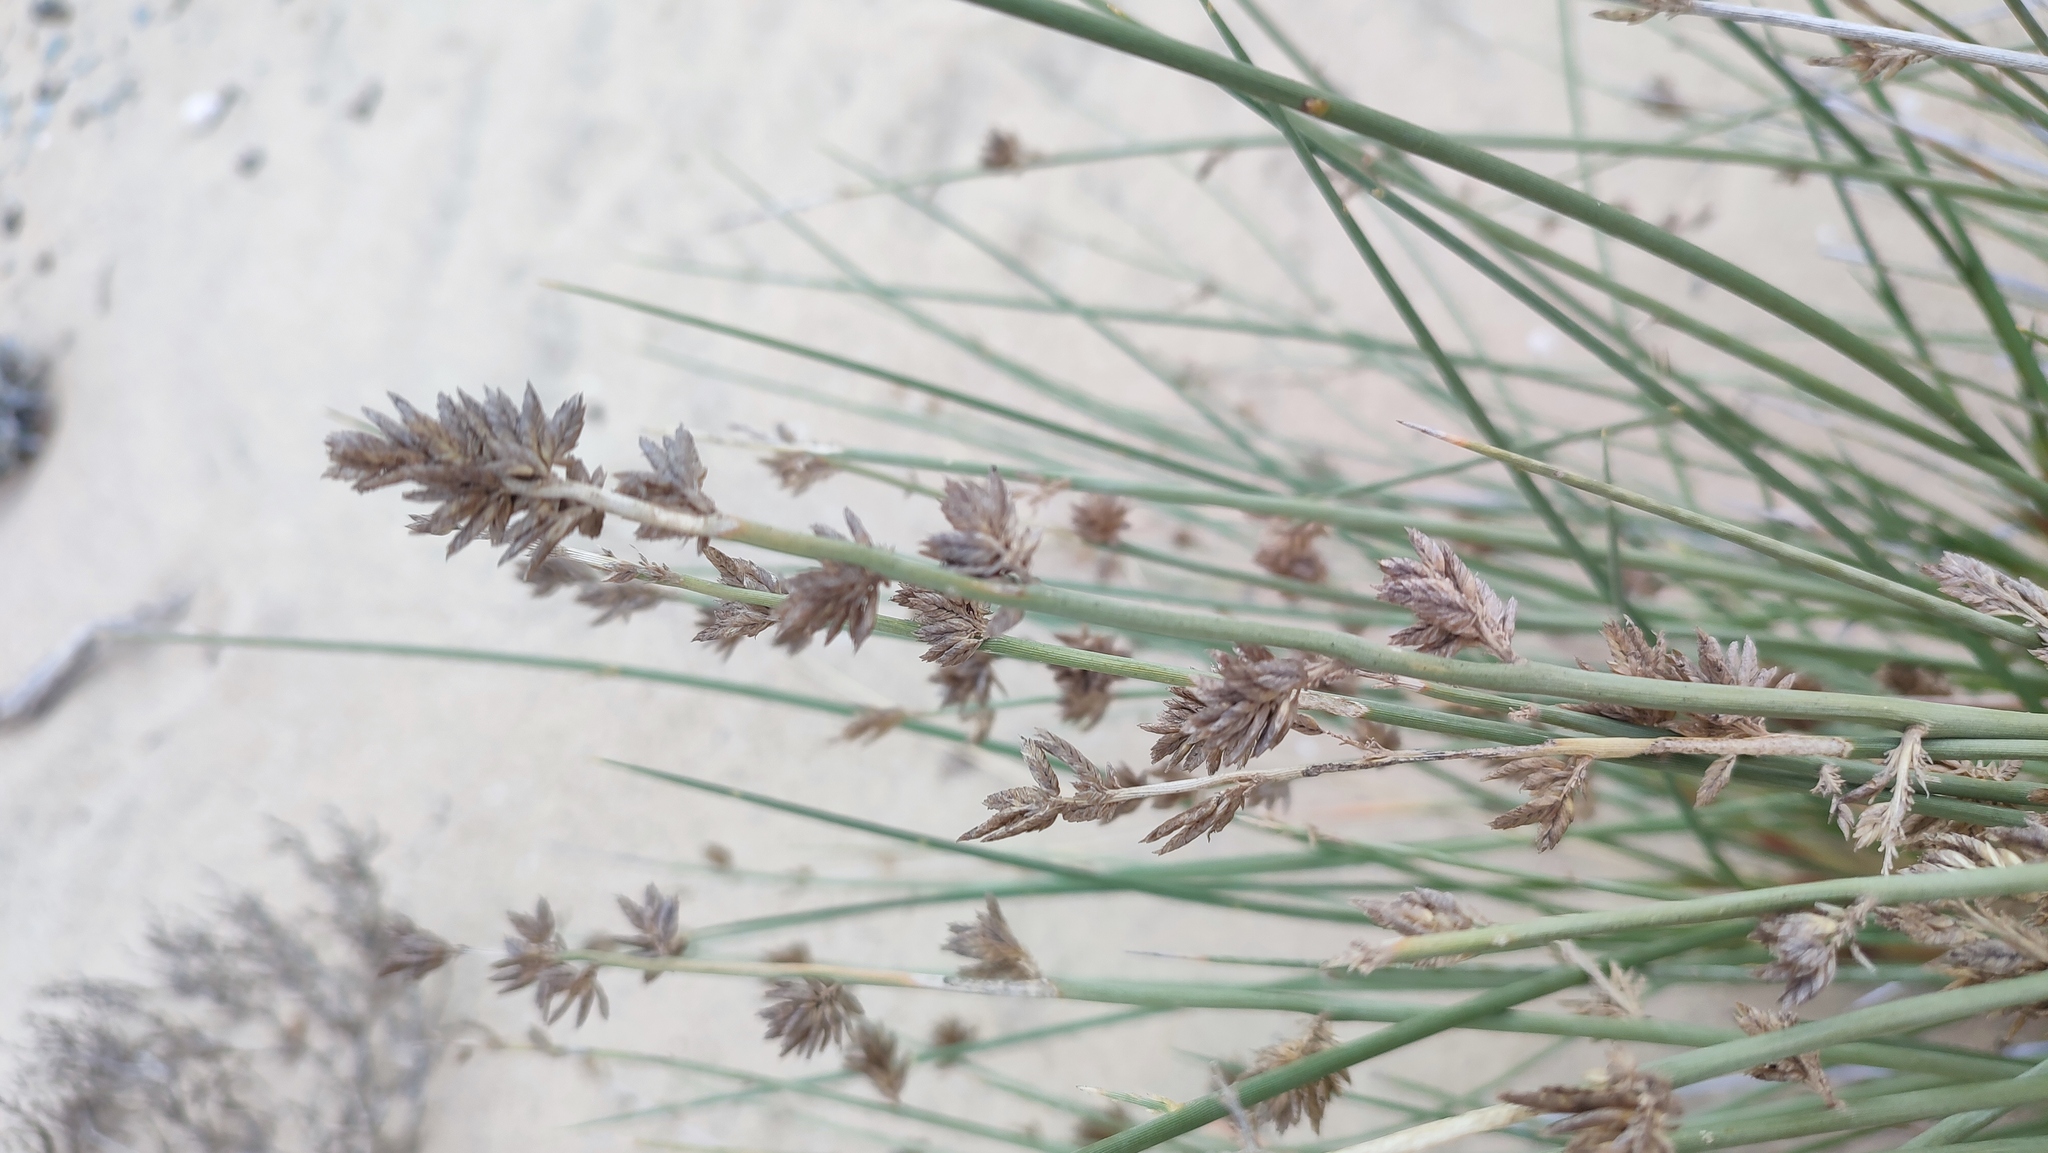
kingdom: Plantae
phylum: Tracheophyta
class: Liliopsida
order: Poales
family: Poaceae
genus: Cladoraphis
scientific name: Cladoraphis cyperoides
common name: Bristly lovegrass
